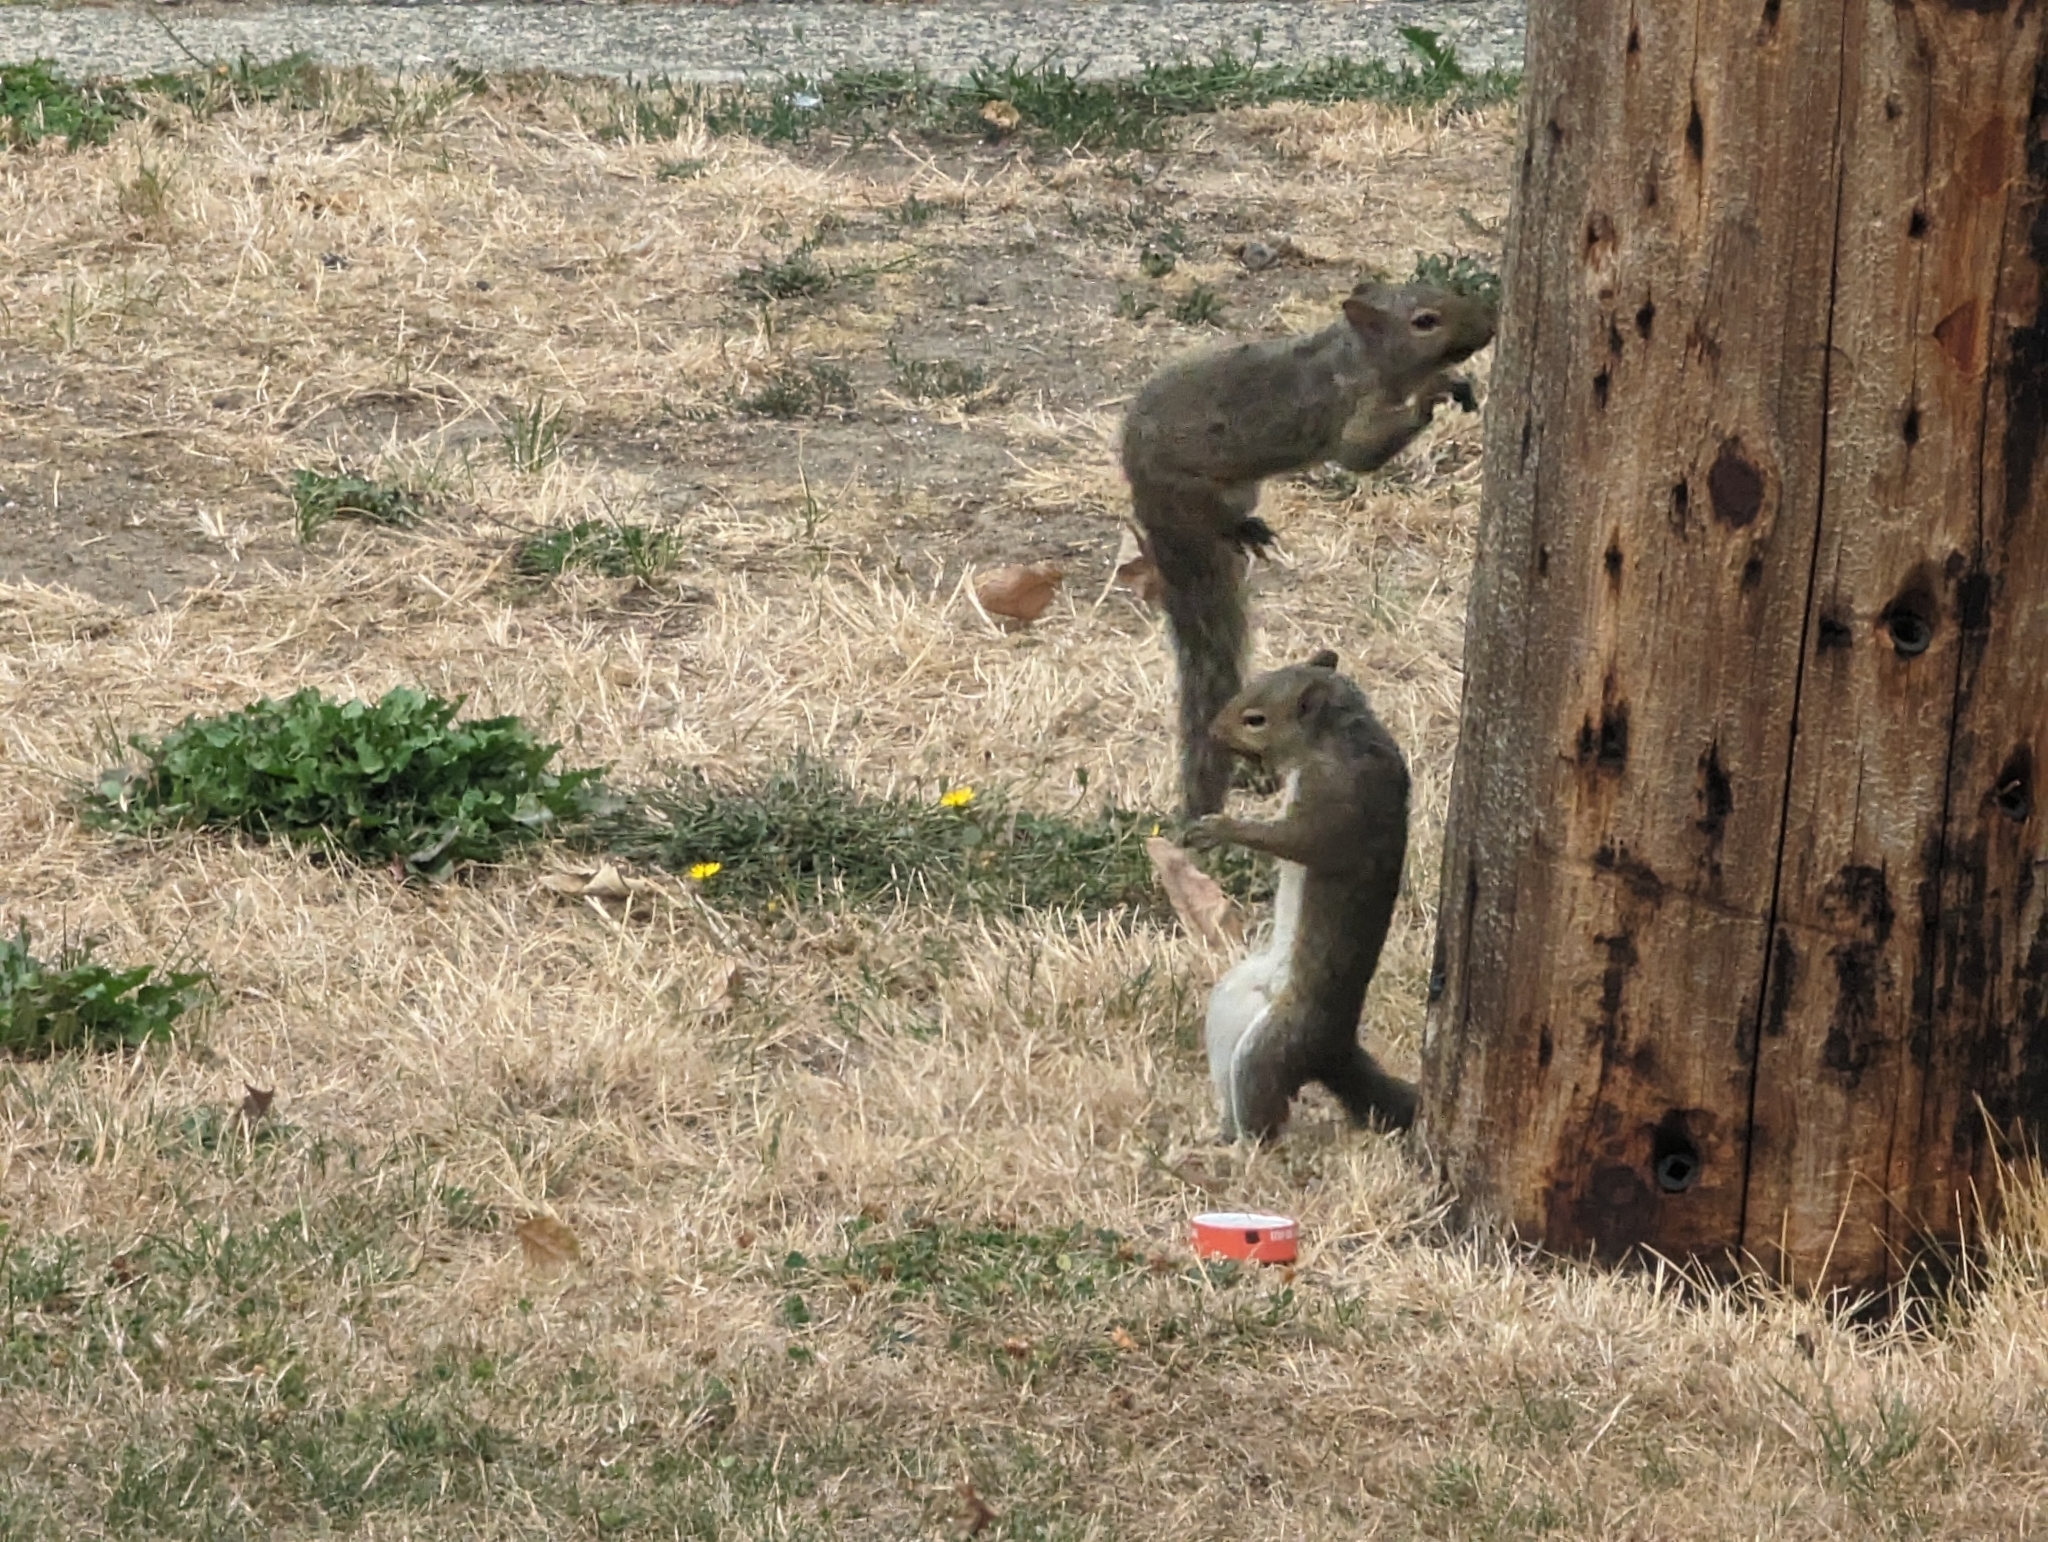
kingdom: Animalia
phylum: Chordata
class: Mammalia
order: Rodentia
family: Sciuridae
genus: Sciurus
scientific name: Sciurus carolinensis
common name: Eastern gray squirrel
